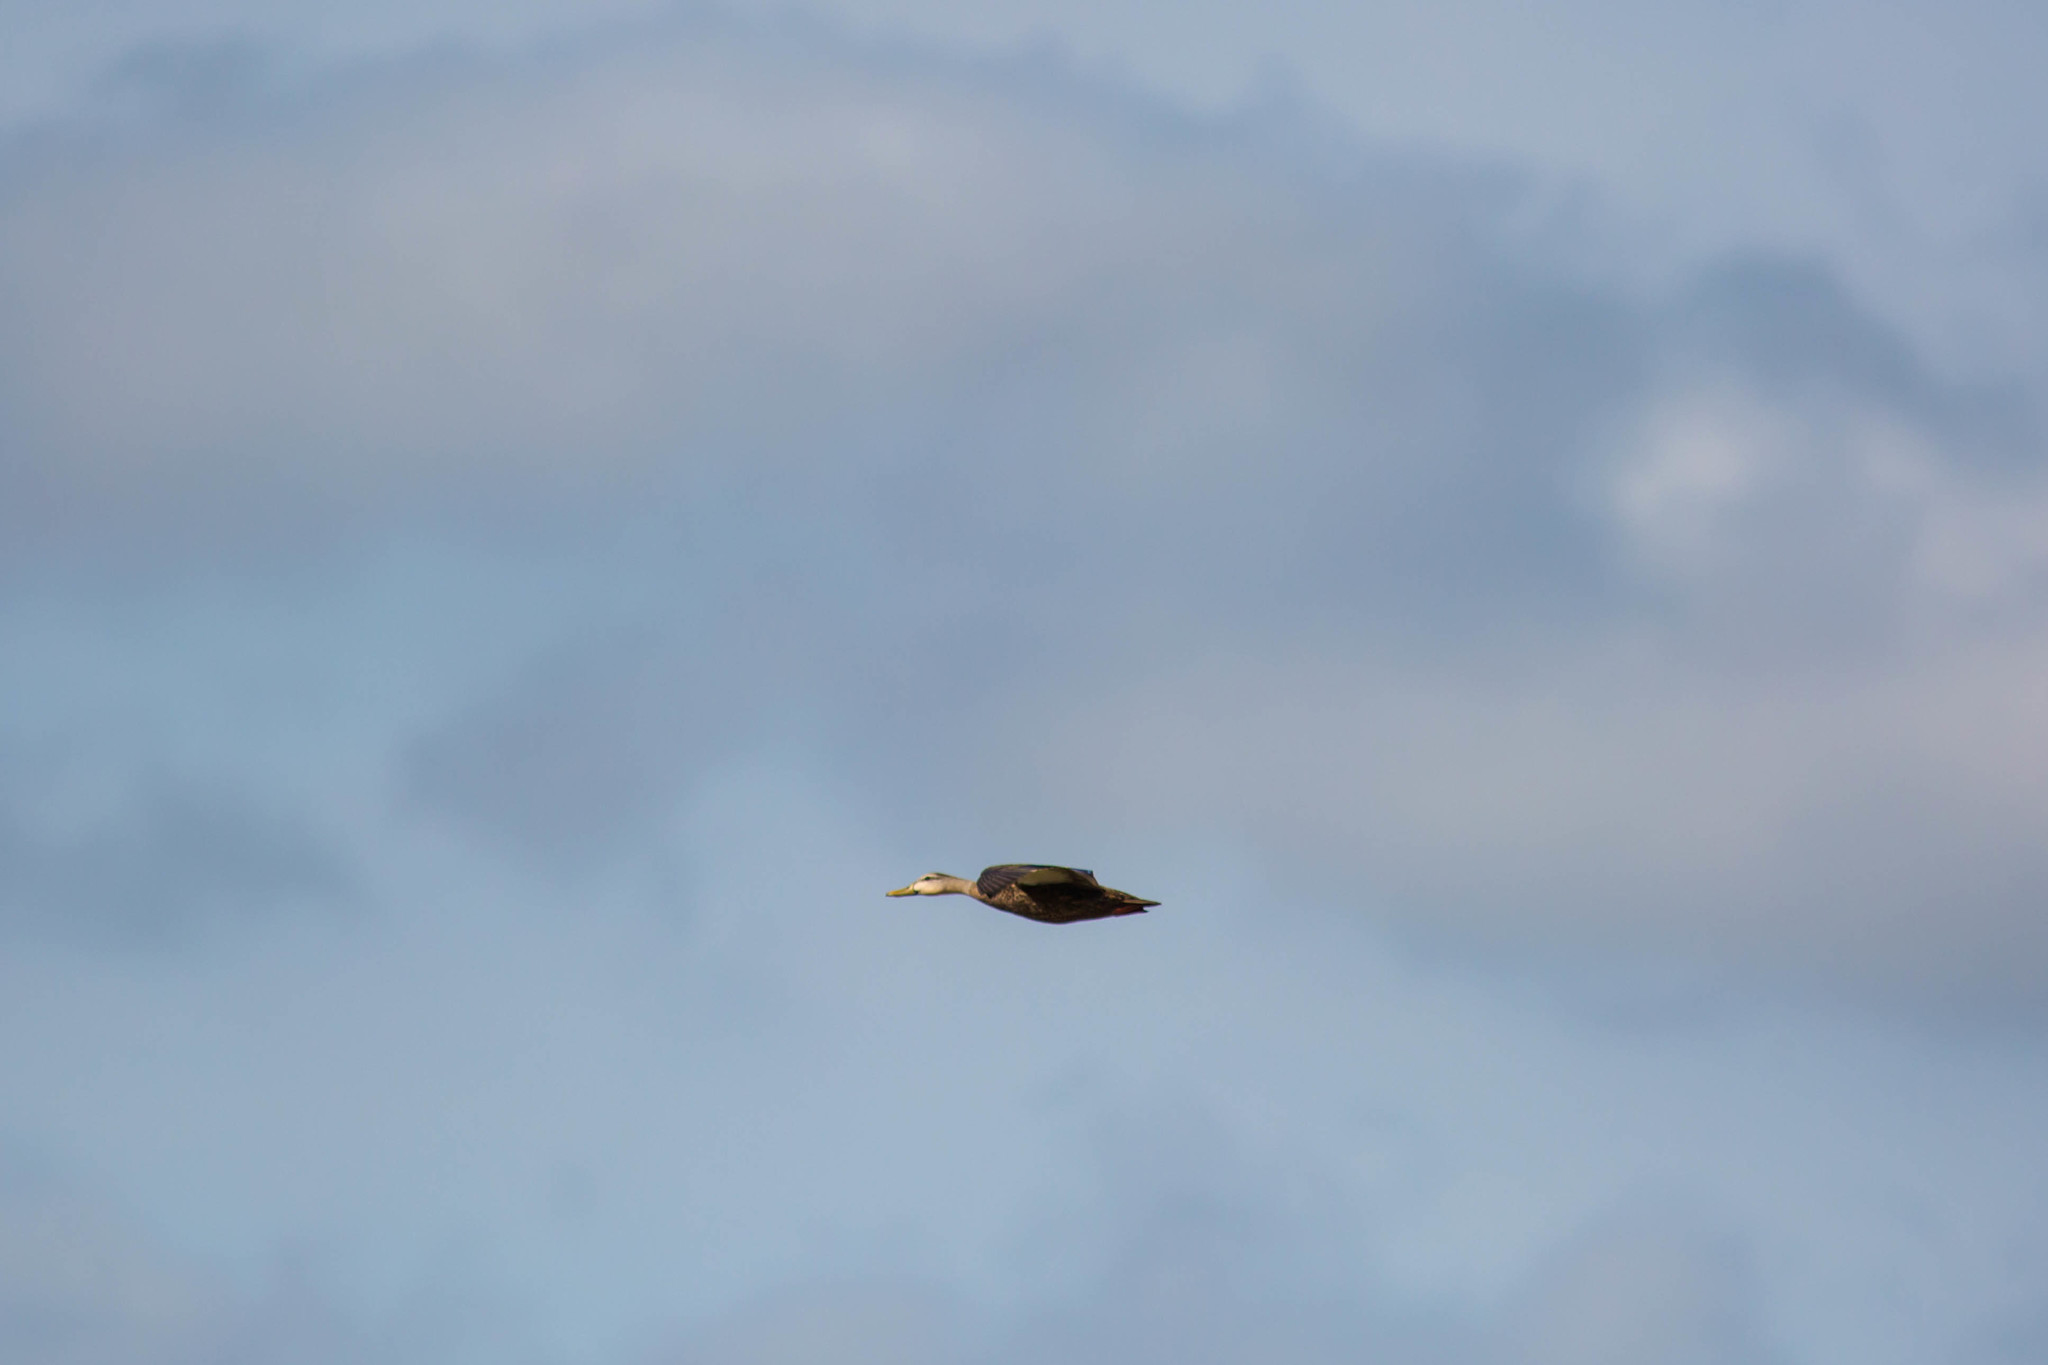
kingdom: Animalia
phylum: Chordata
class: Aves
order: Anseriformes
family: Anatidae
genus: Anas
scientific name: Anas fulvigula
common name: Mottled duck
